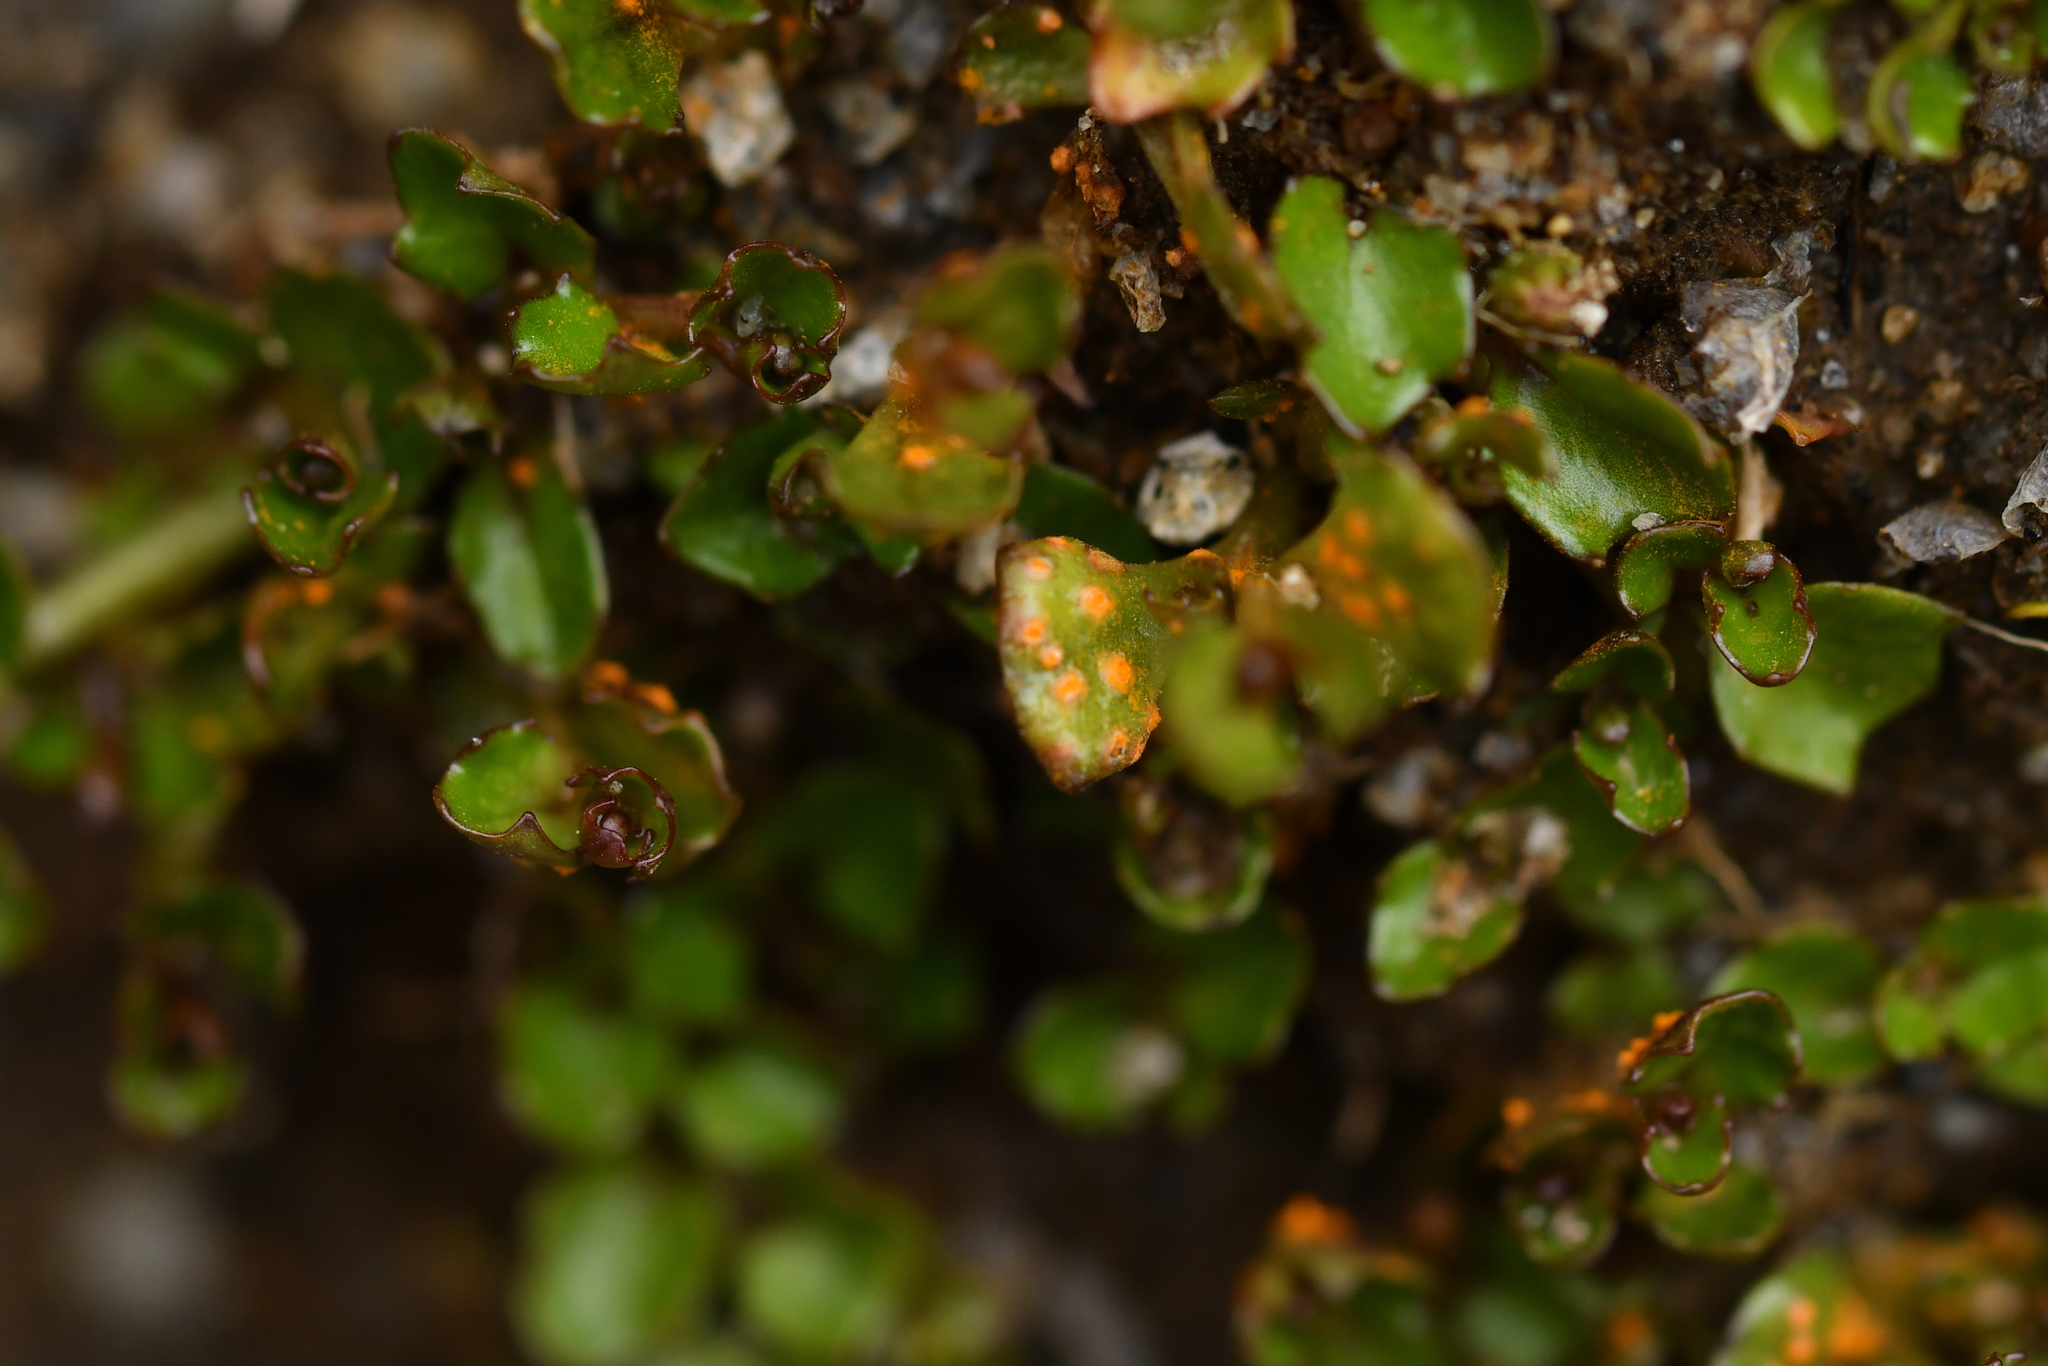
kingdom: Fungi
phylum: Basidiomycota
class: Pucciniomycetes
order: Pucciniales
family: Pucciniaceae
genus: Aecidium
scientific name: Aecidium microstomum
